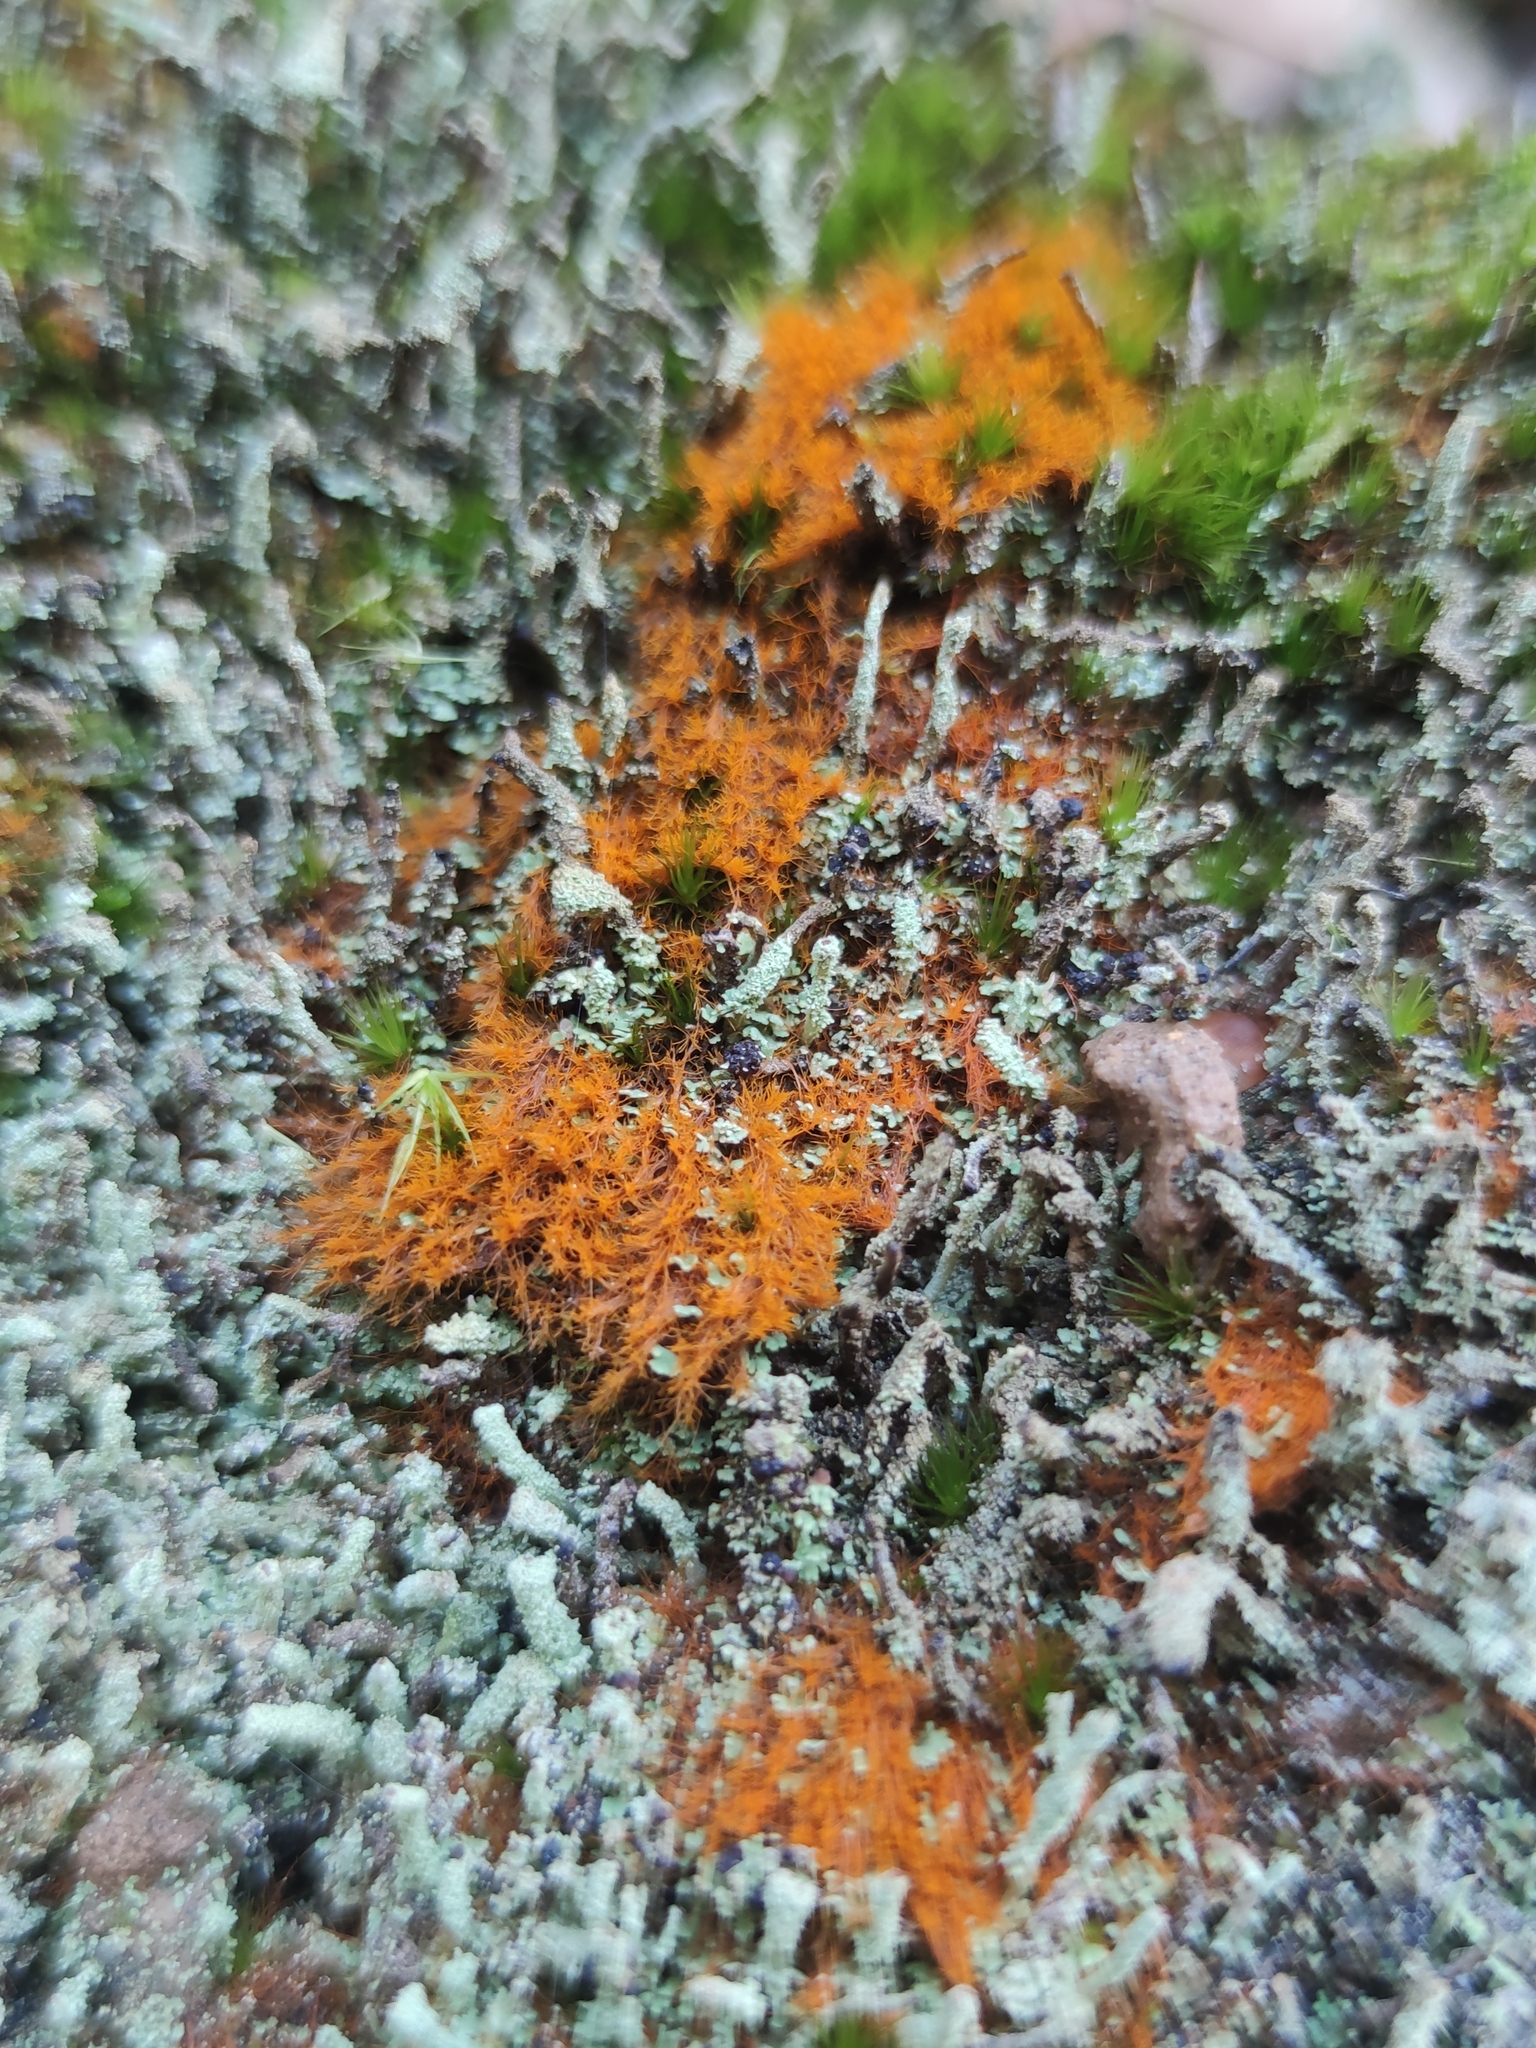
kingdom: Plantae
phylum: Chlorophyta
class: Ulvophyceae
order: Trentepohliales
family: Trentepohliaceae
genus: Trentepohlia
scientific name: Trentepohlia aurea
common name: Orange rock hair
